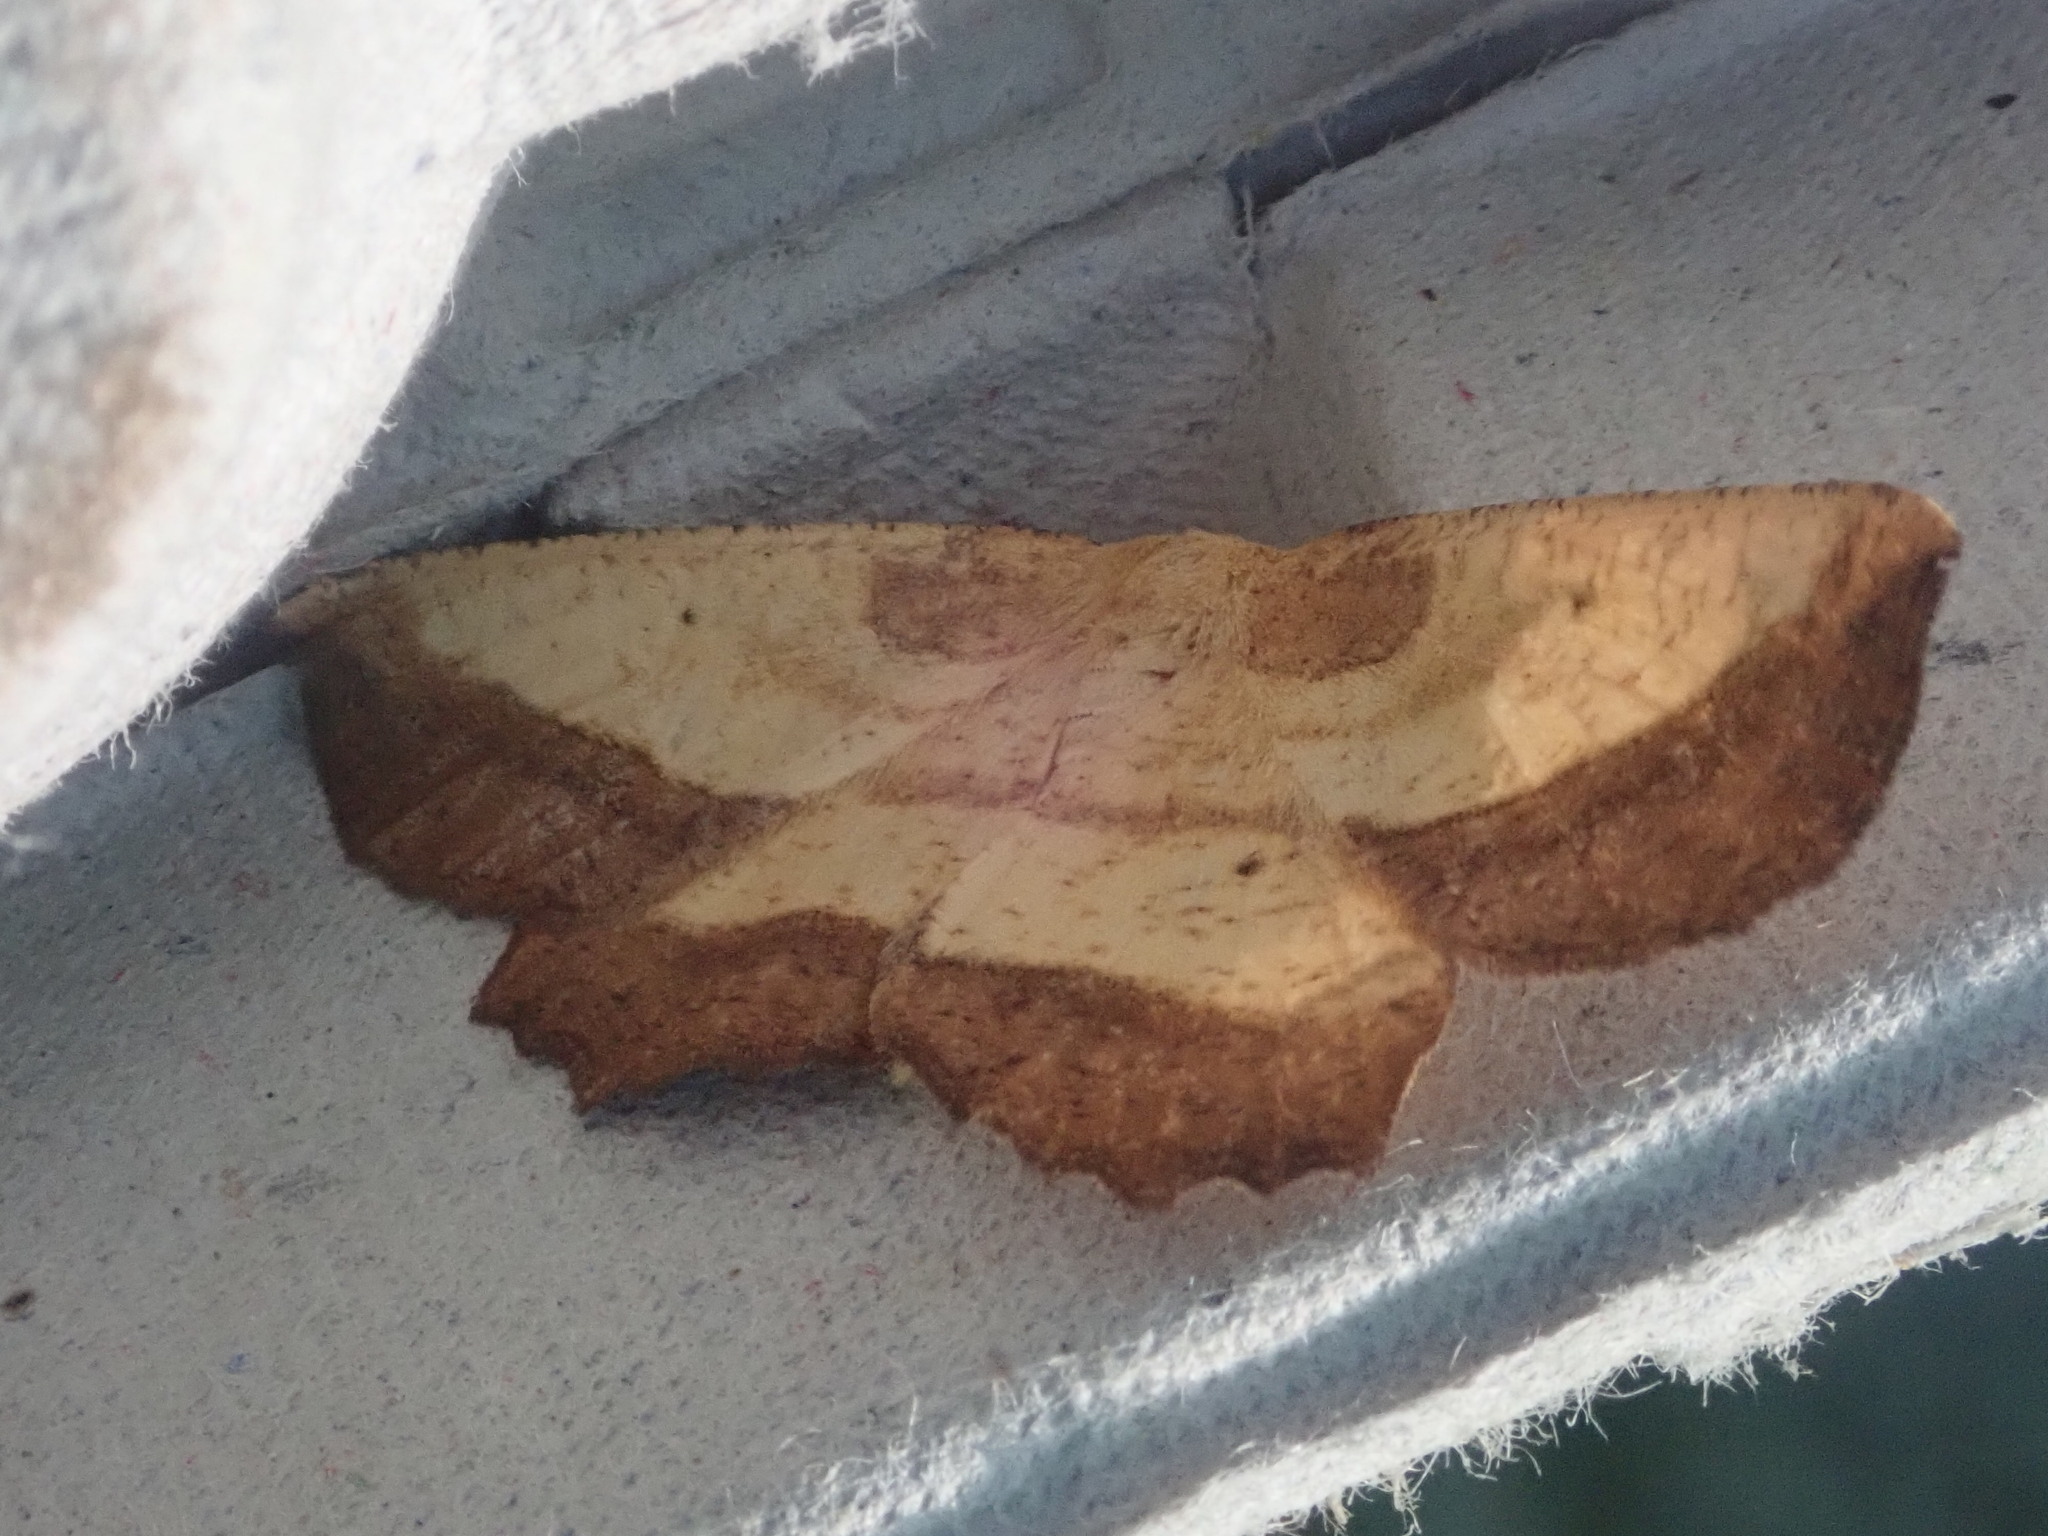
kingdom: Animalia
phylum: Arthropoda
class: Insecta
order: Lepidoptera
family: Geometridae
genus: Euchlaena
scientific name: Euchlaena serrata
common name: Saw wing
